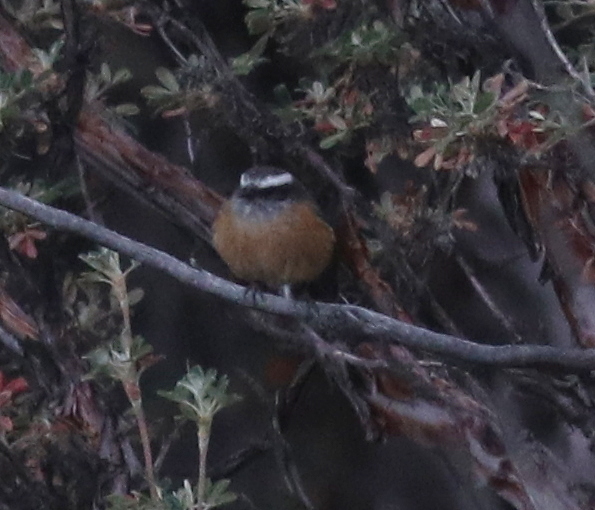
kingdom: Animalia
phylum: Chordata
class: Aves
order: Passeriformes
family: Tyrannidae
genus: Ochthoeca
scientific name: Ochthoeca oenanthoides
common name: D'orbigny's chat-tyrant
